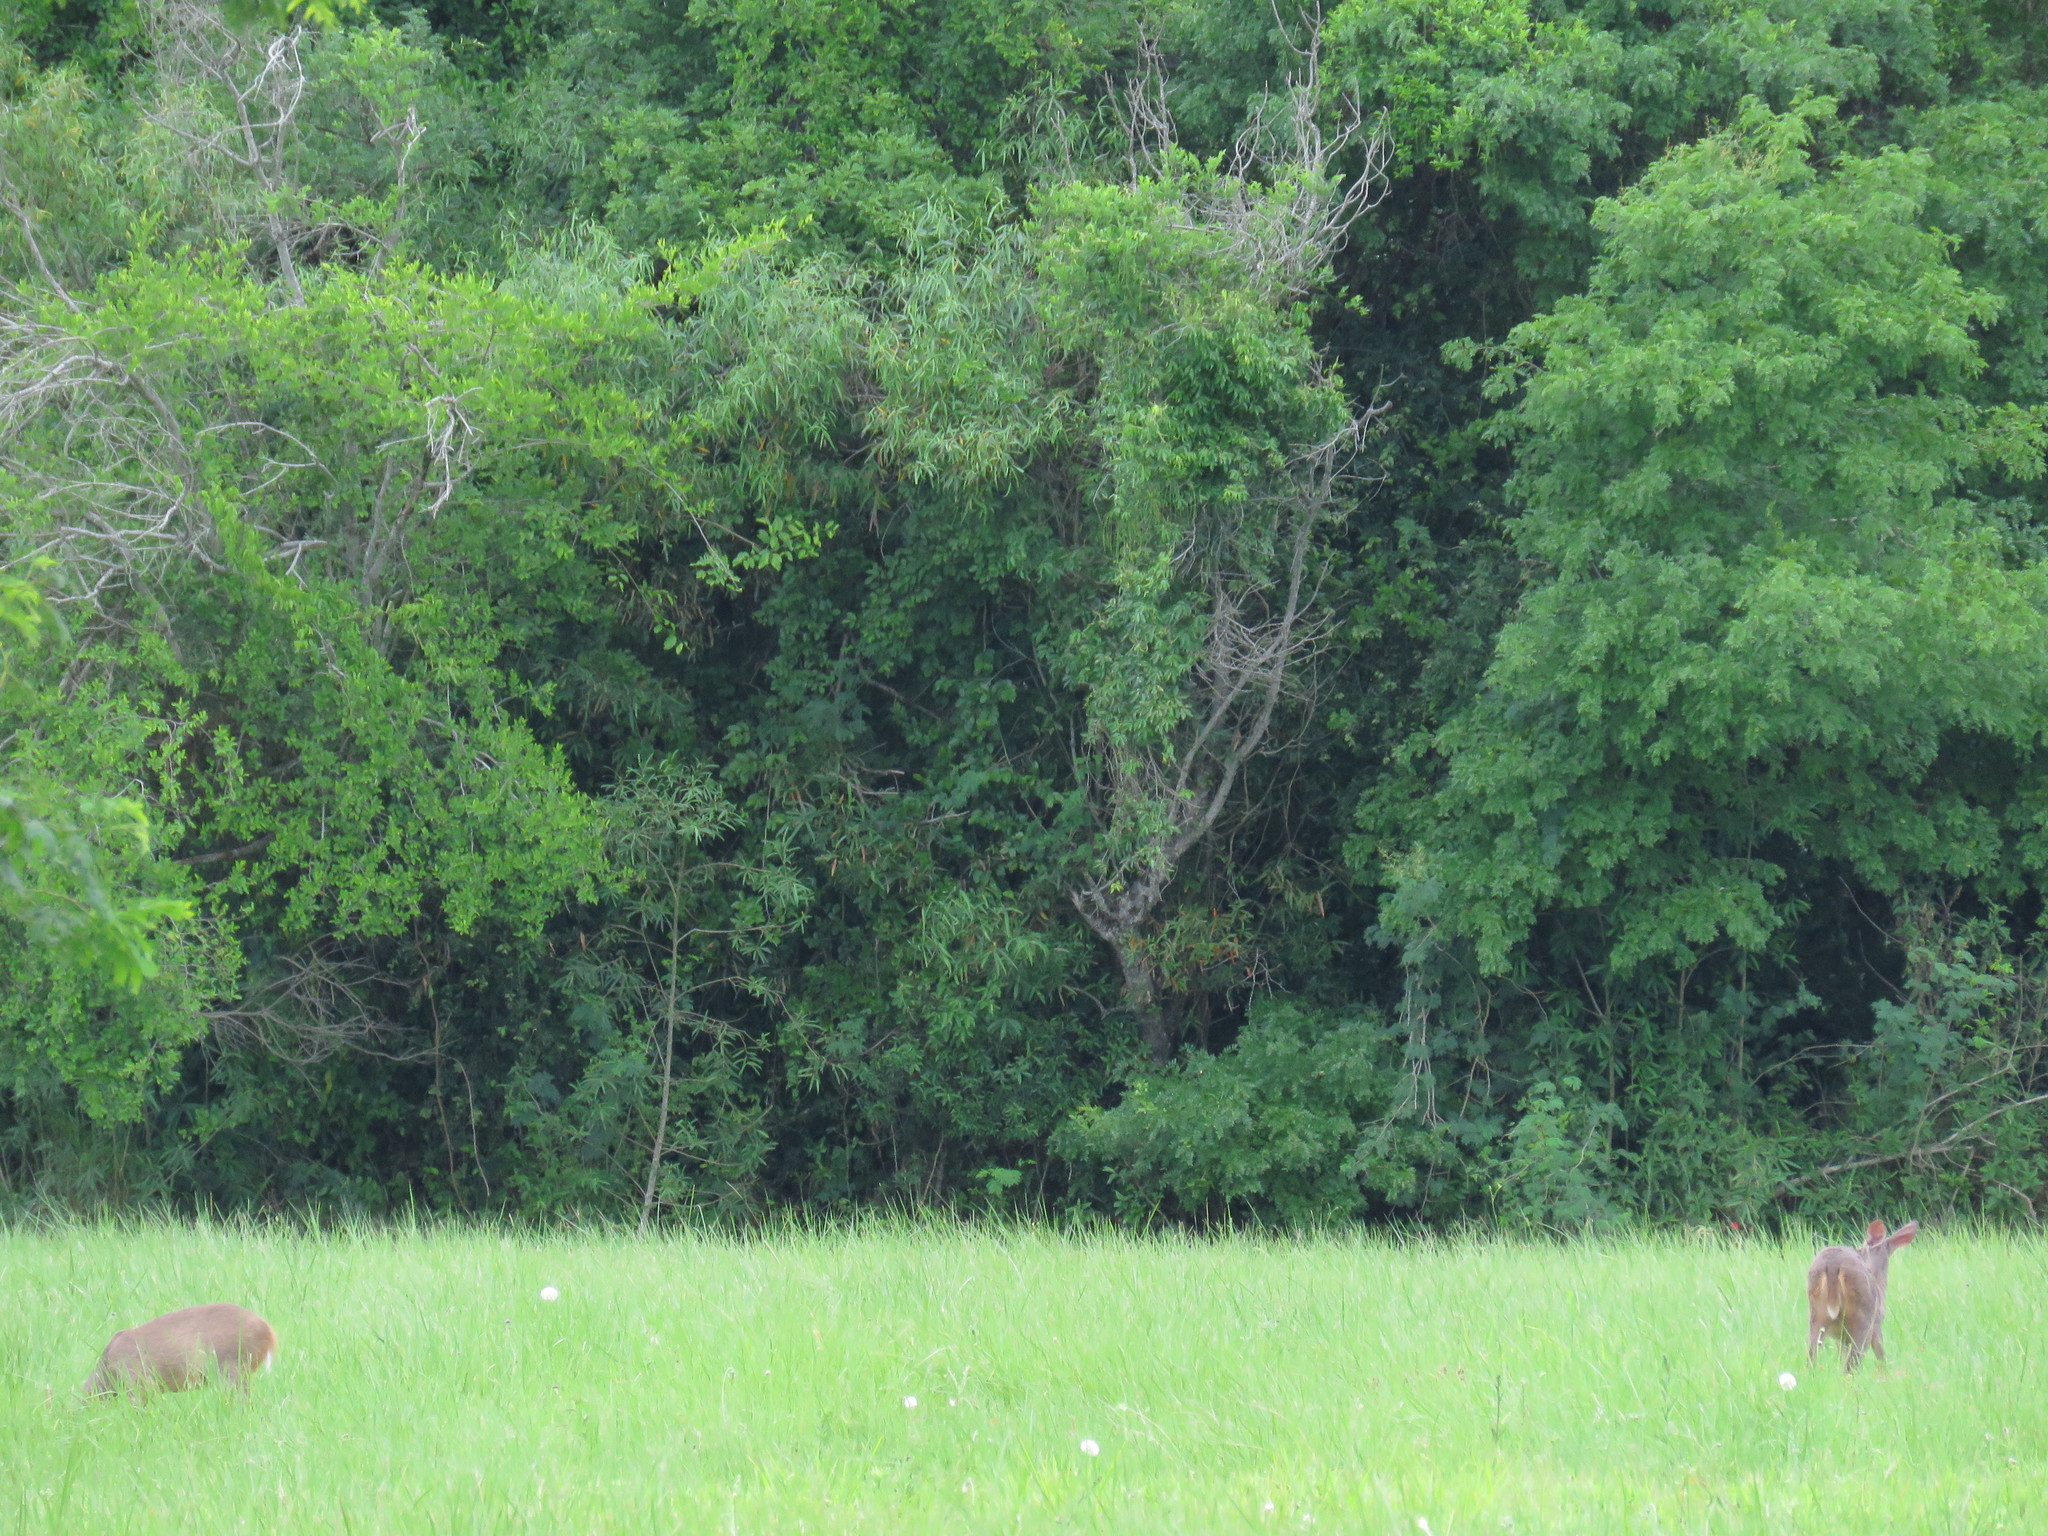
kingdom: Animalia
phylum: Chordata
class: Mammalia
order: Artiodactyla
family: Cervidae
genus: Mazama
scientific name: Mazama gouazoubira
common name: Gray brocket
